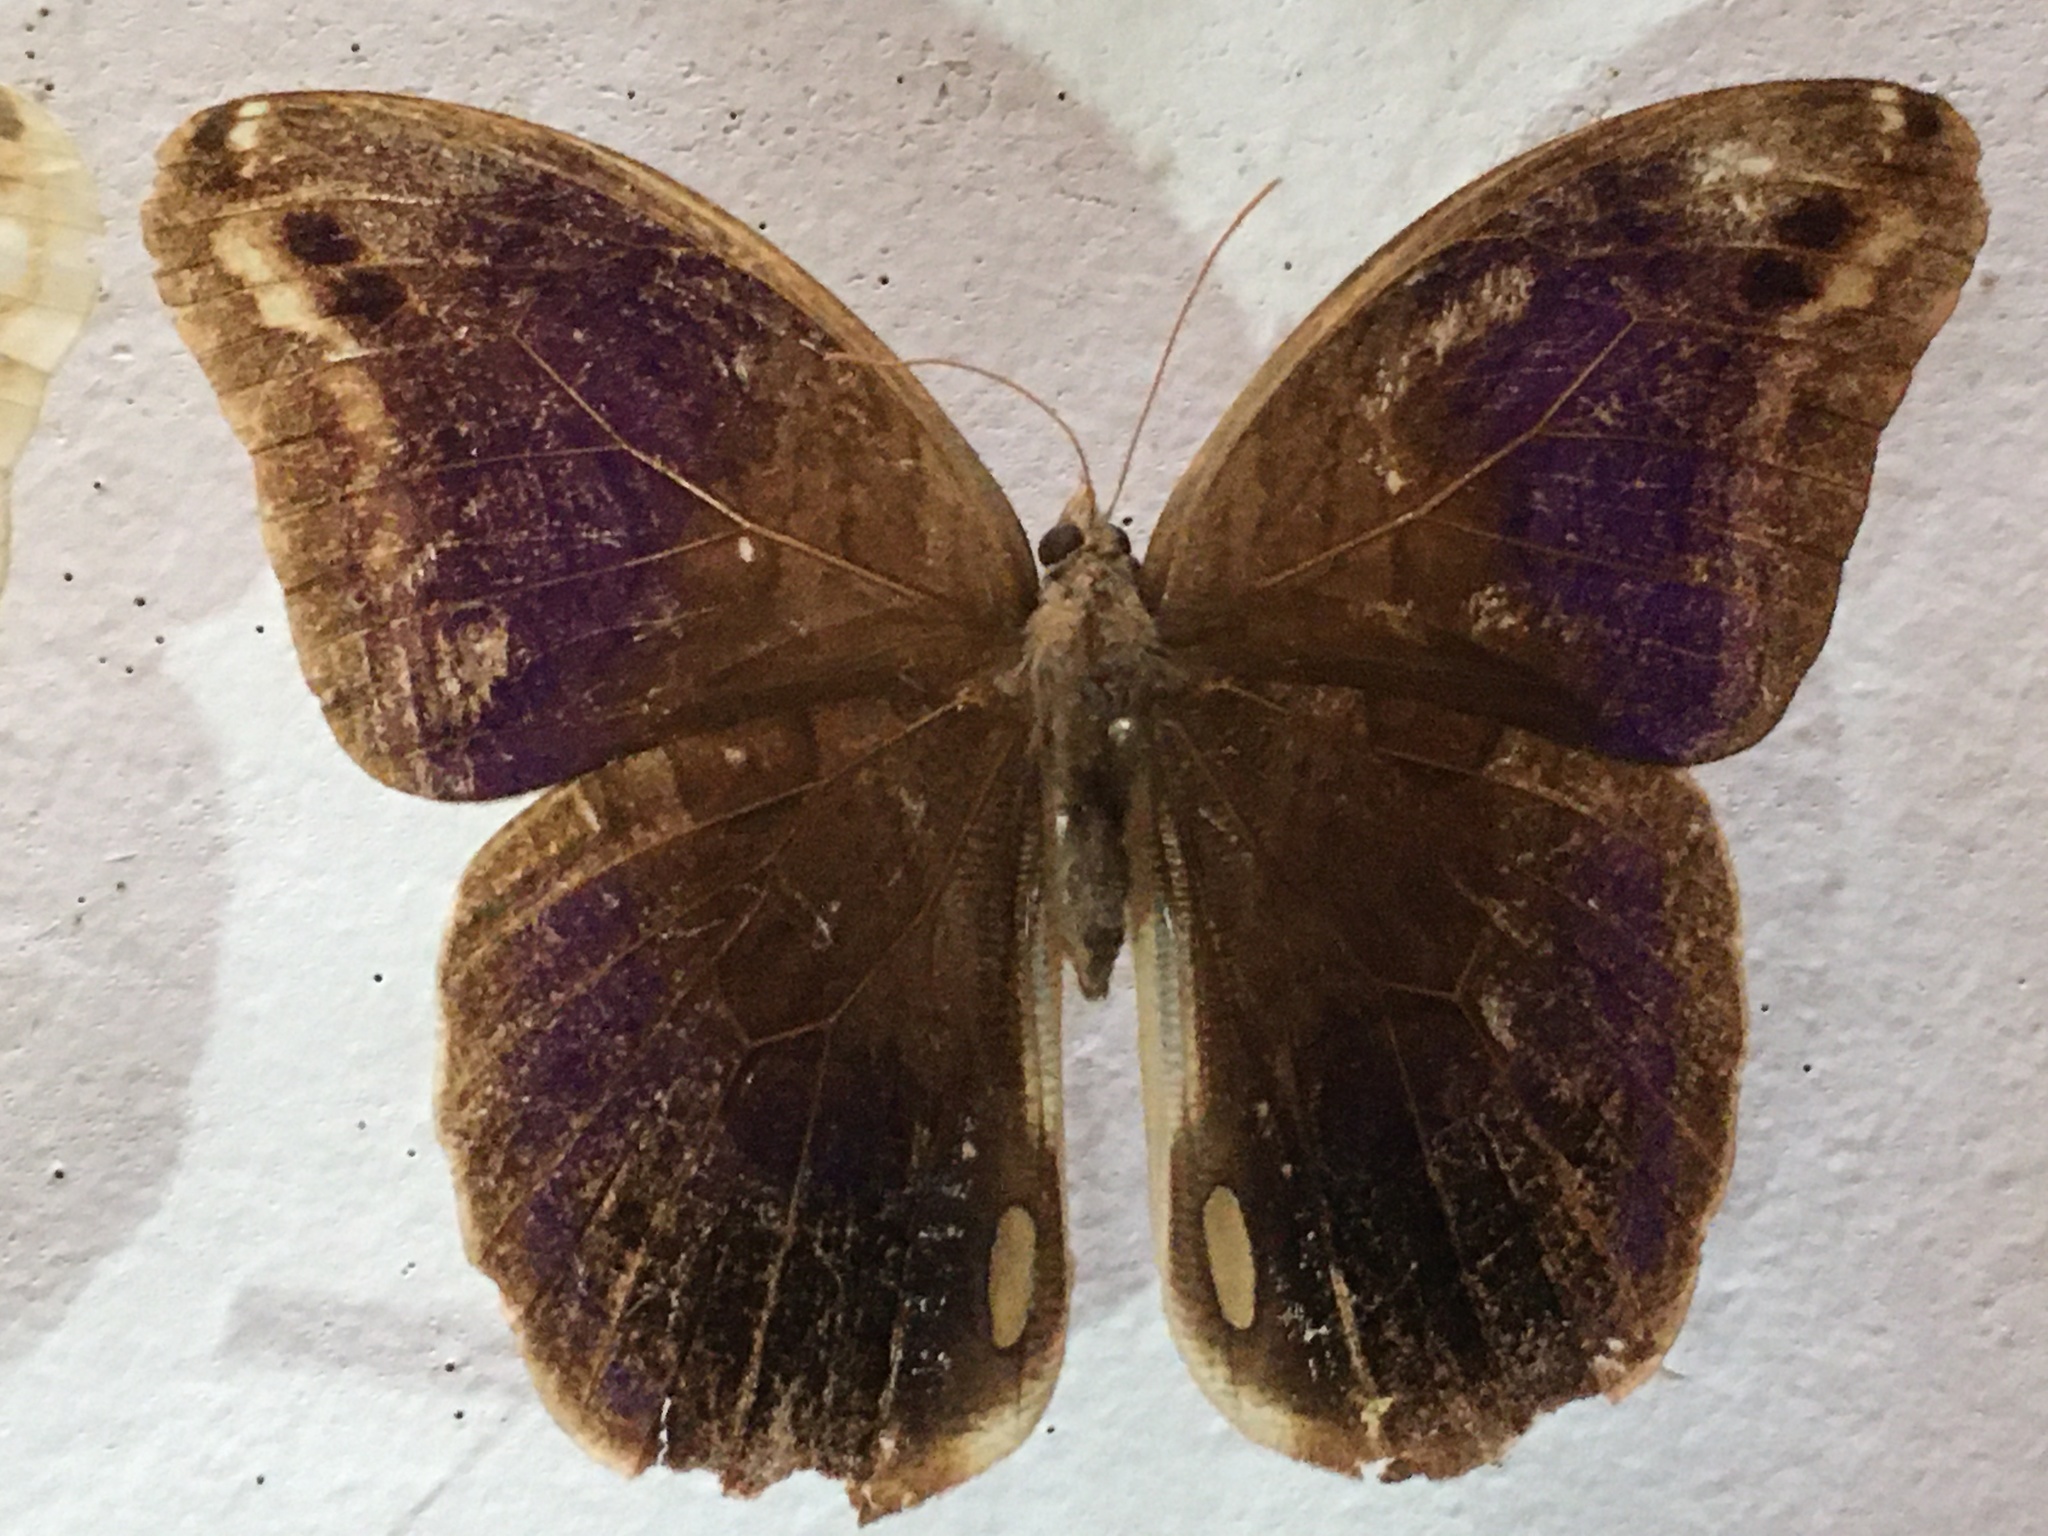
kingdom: Animalia
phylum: Arthropoda
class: Insecta
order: Lepidoptera
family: Nymphalidae
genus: Eryphanis
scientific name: Eryphanis aesacus
